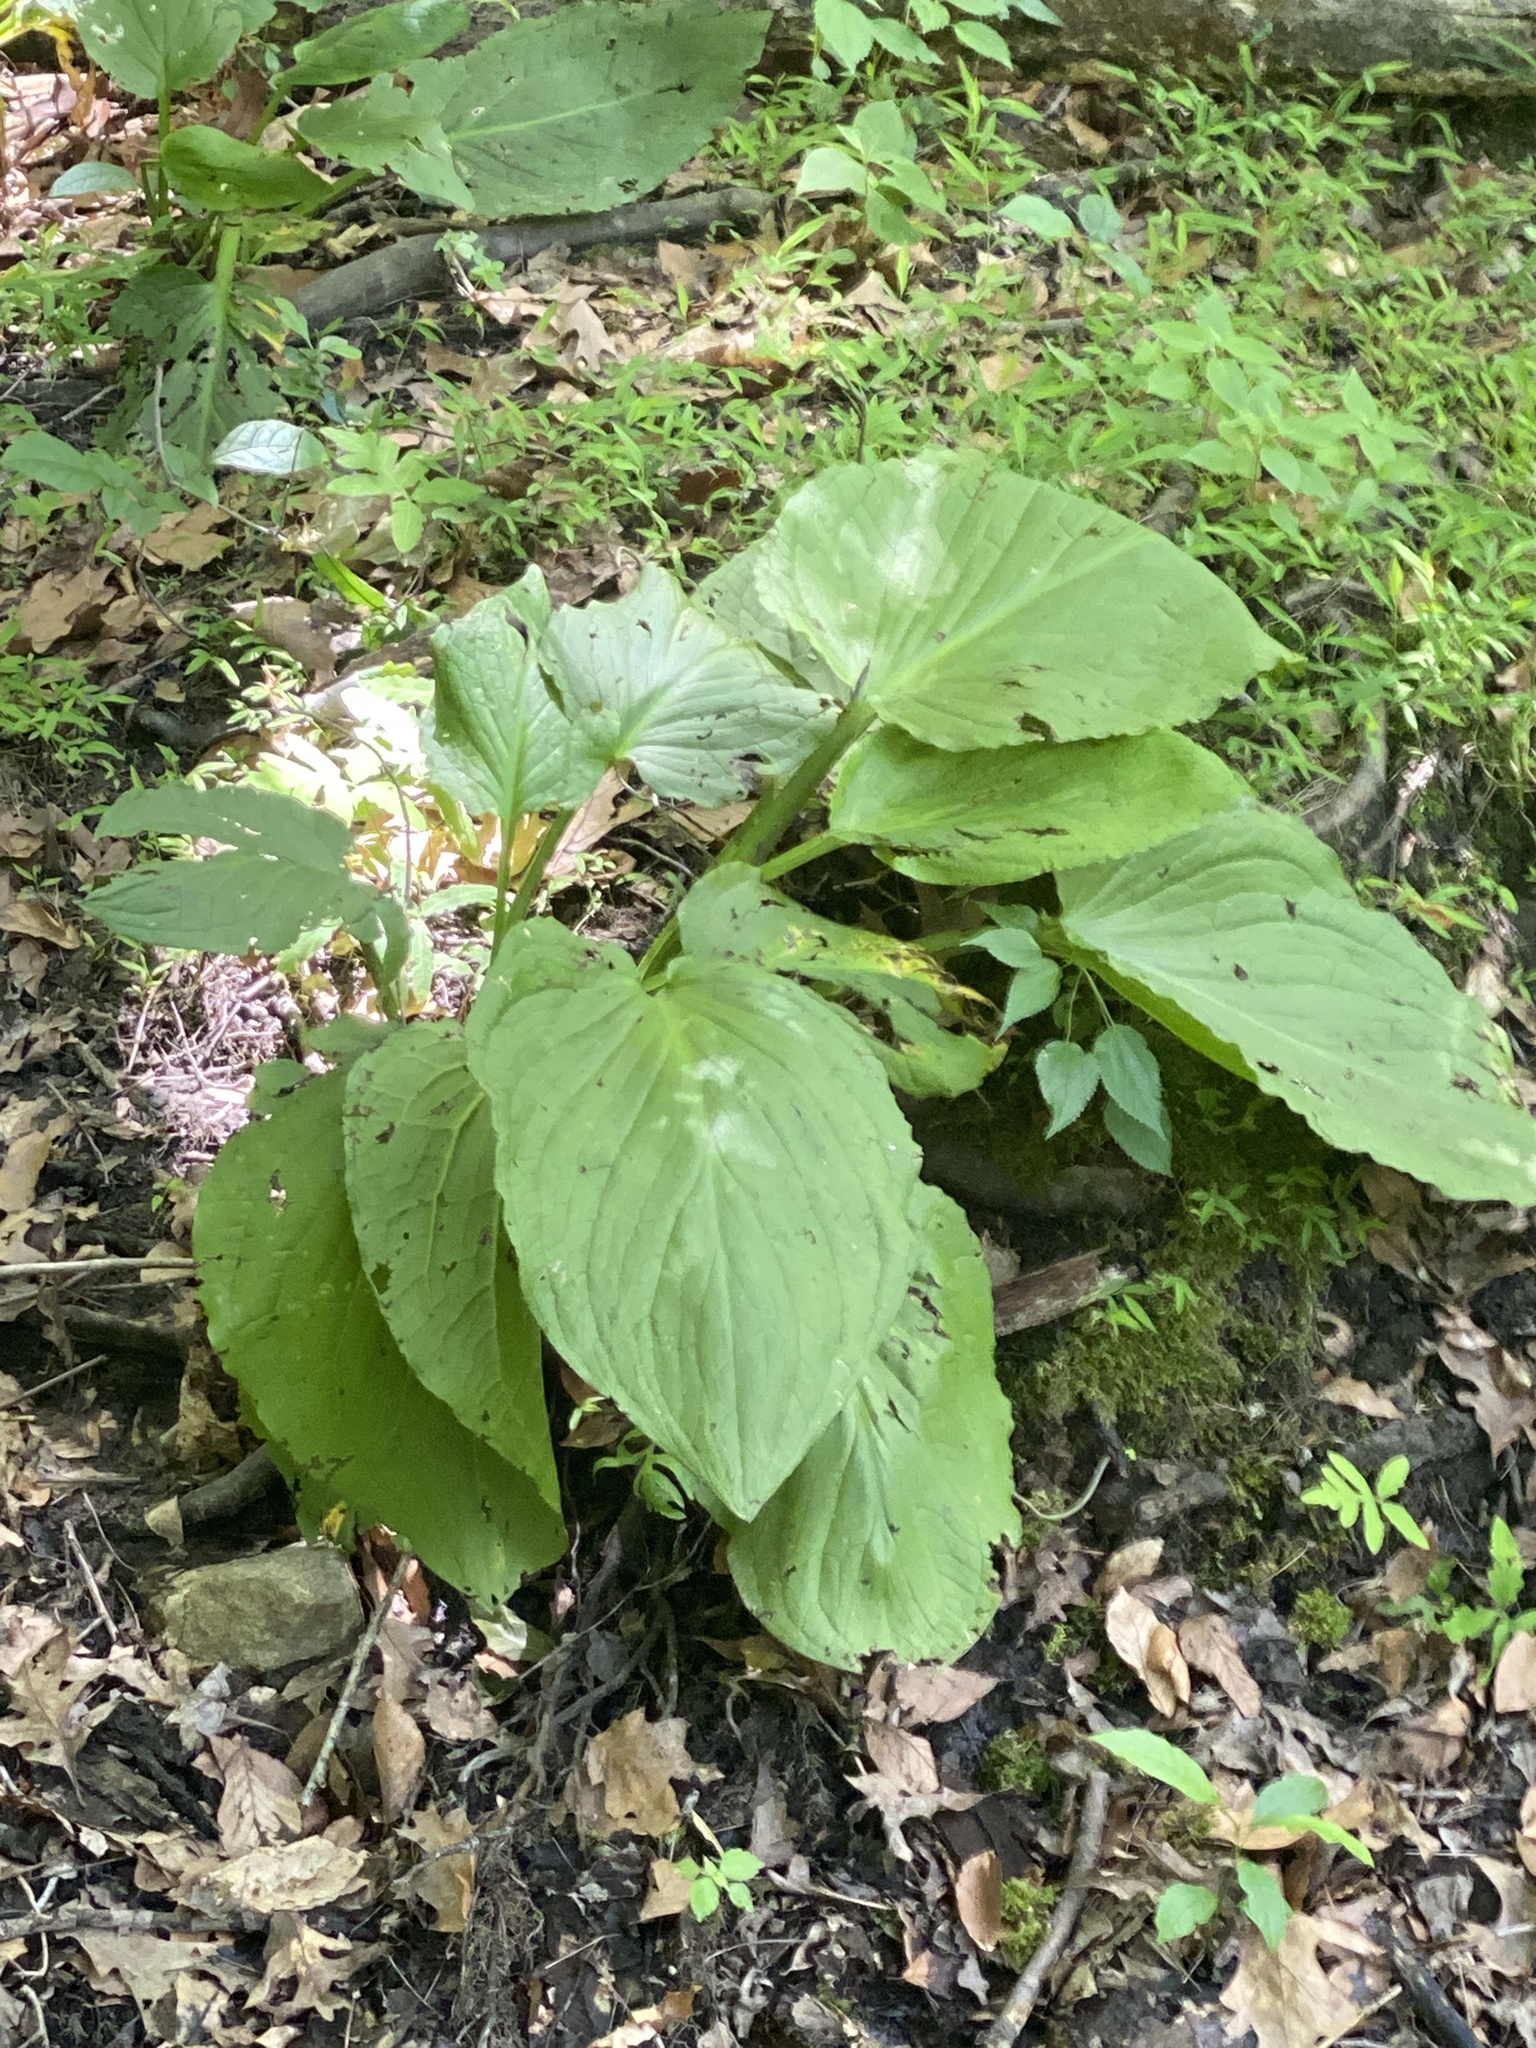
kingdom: Plantae
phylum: Tracheophyta
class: Liliopsida
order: Alismatales
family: Araceae
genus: Symplocarpus
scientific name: Symplocarpus foetidus
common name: Eastern skunk cabbage
